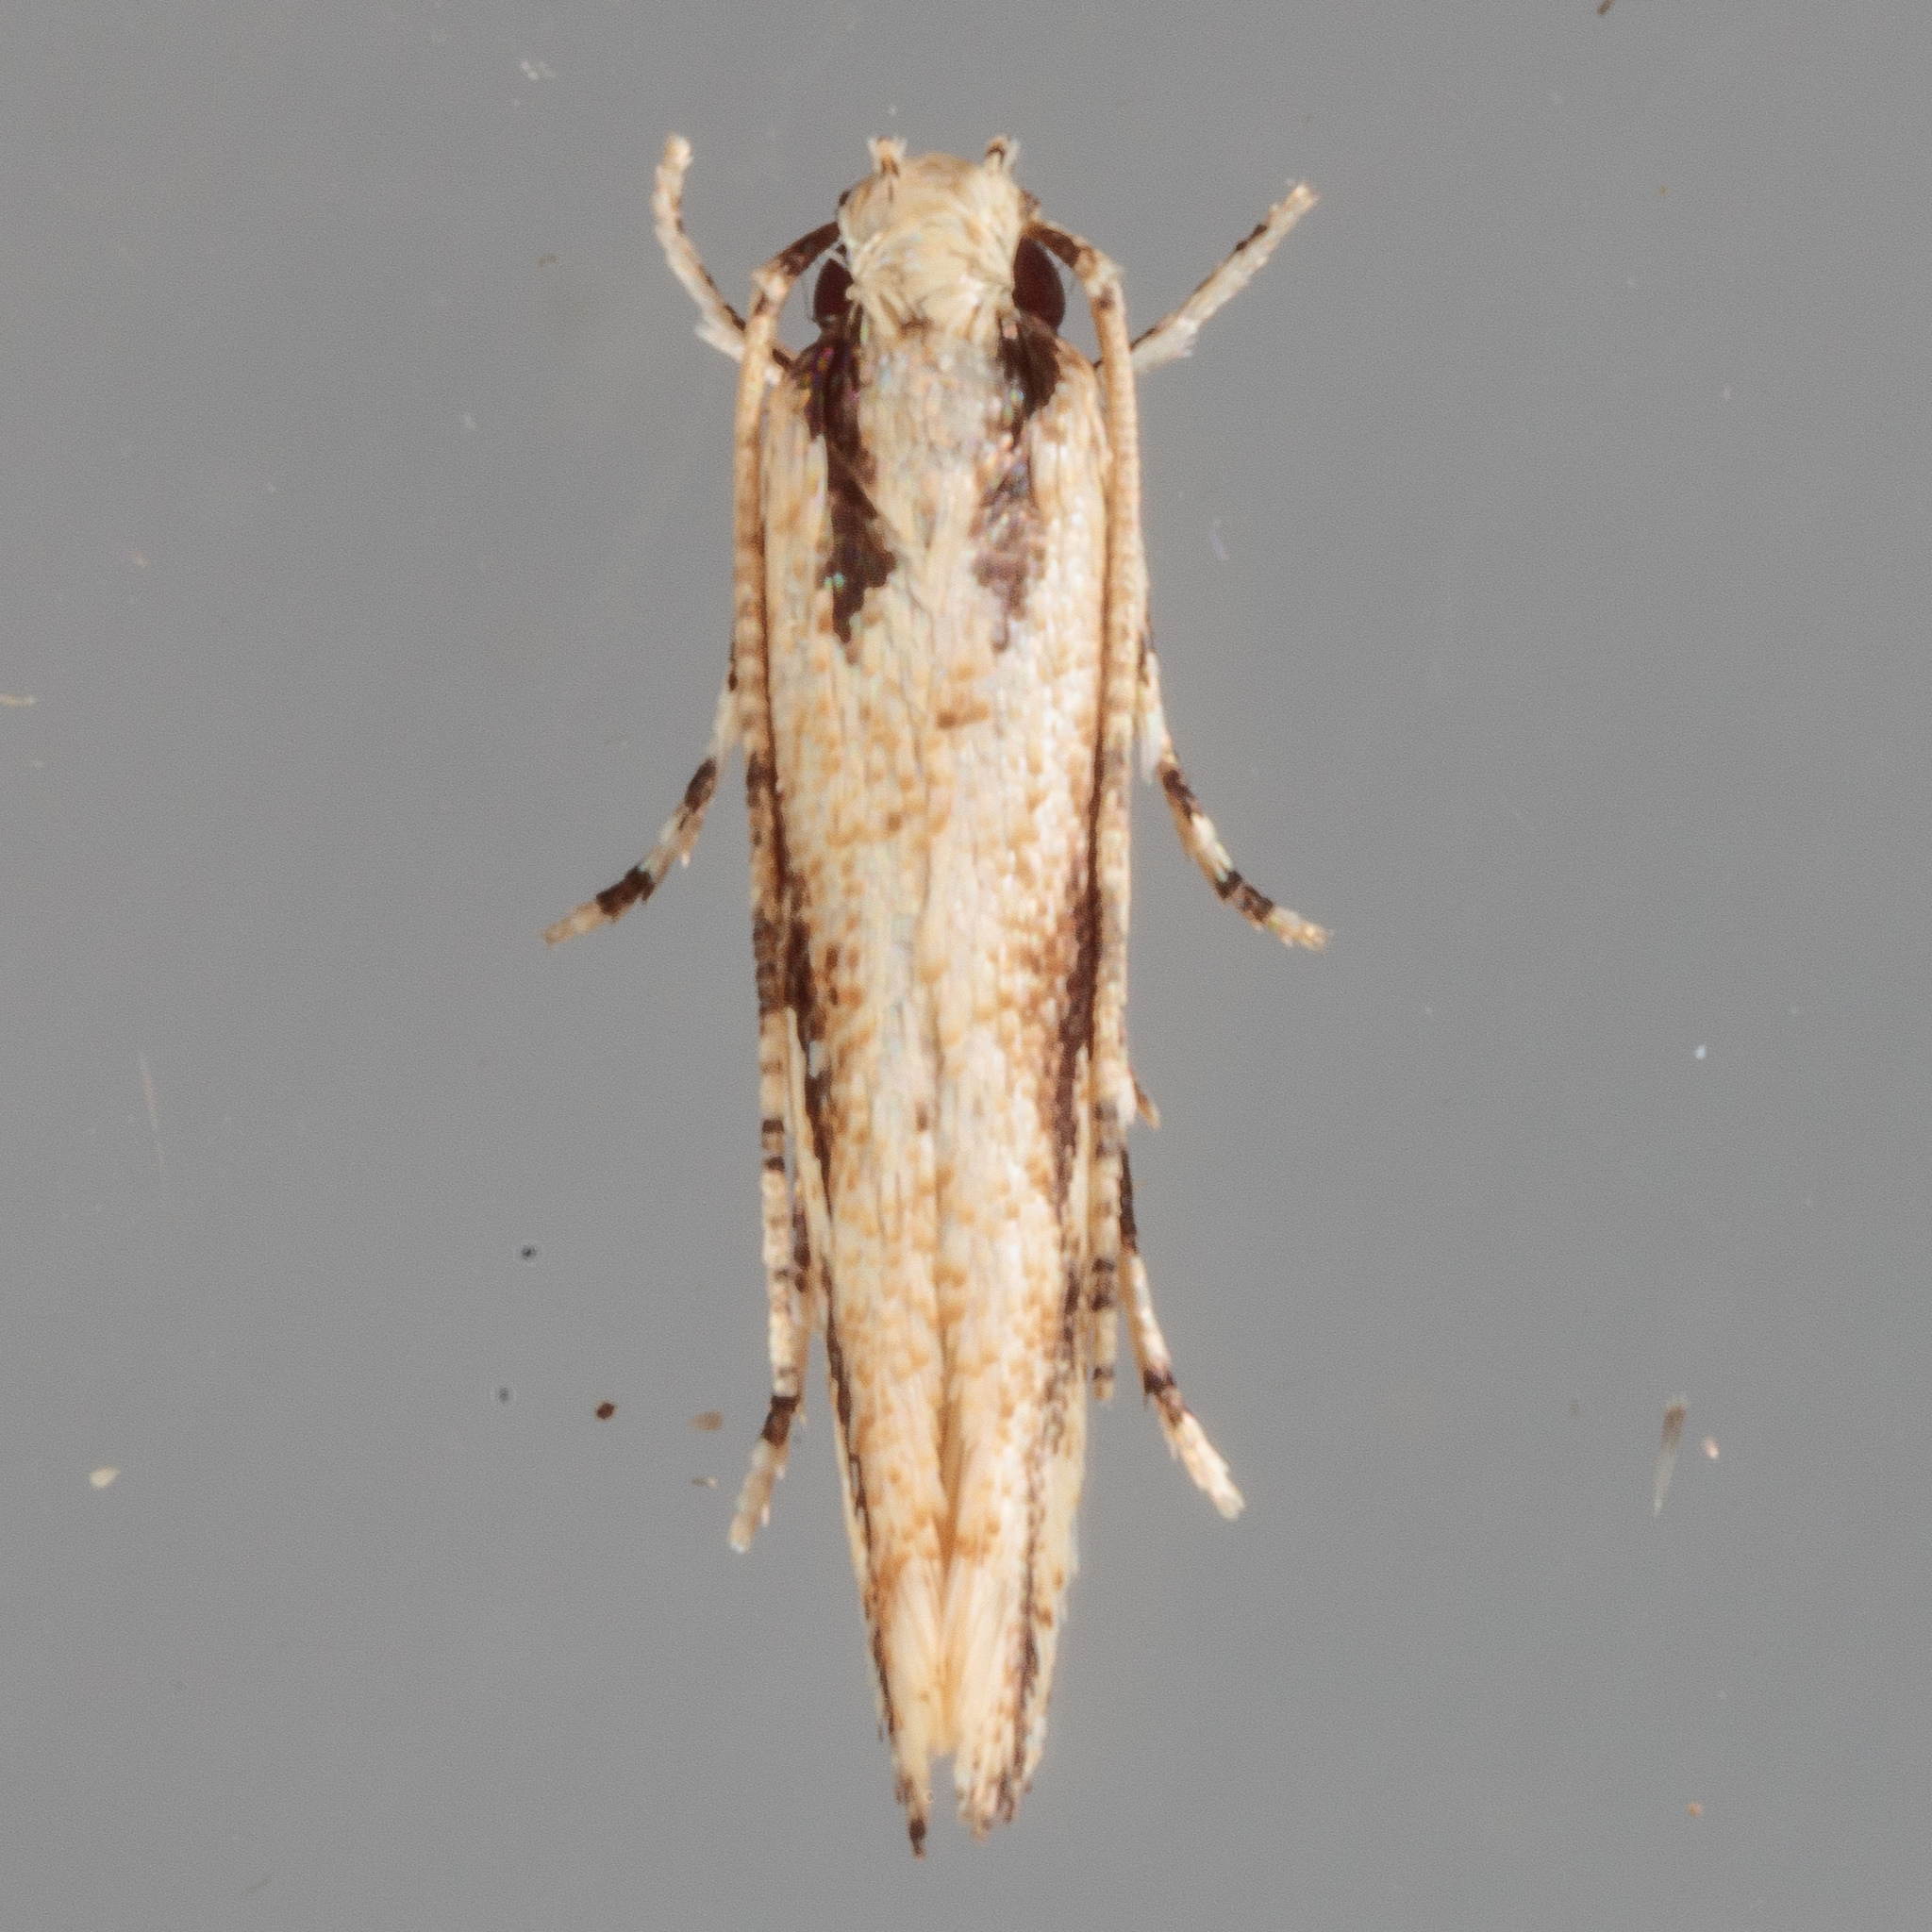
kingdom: Animalia
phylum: Arthropoda
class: Insecta
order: Lepidoptera
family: Cosmopterigidae
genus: Melanocinclis
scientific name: Melanocinclis lineigera
